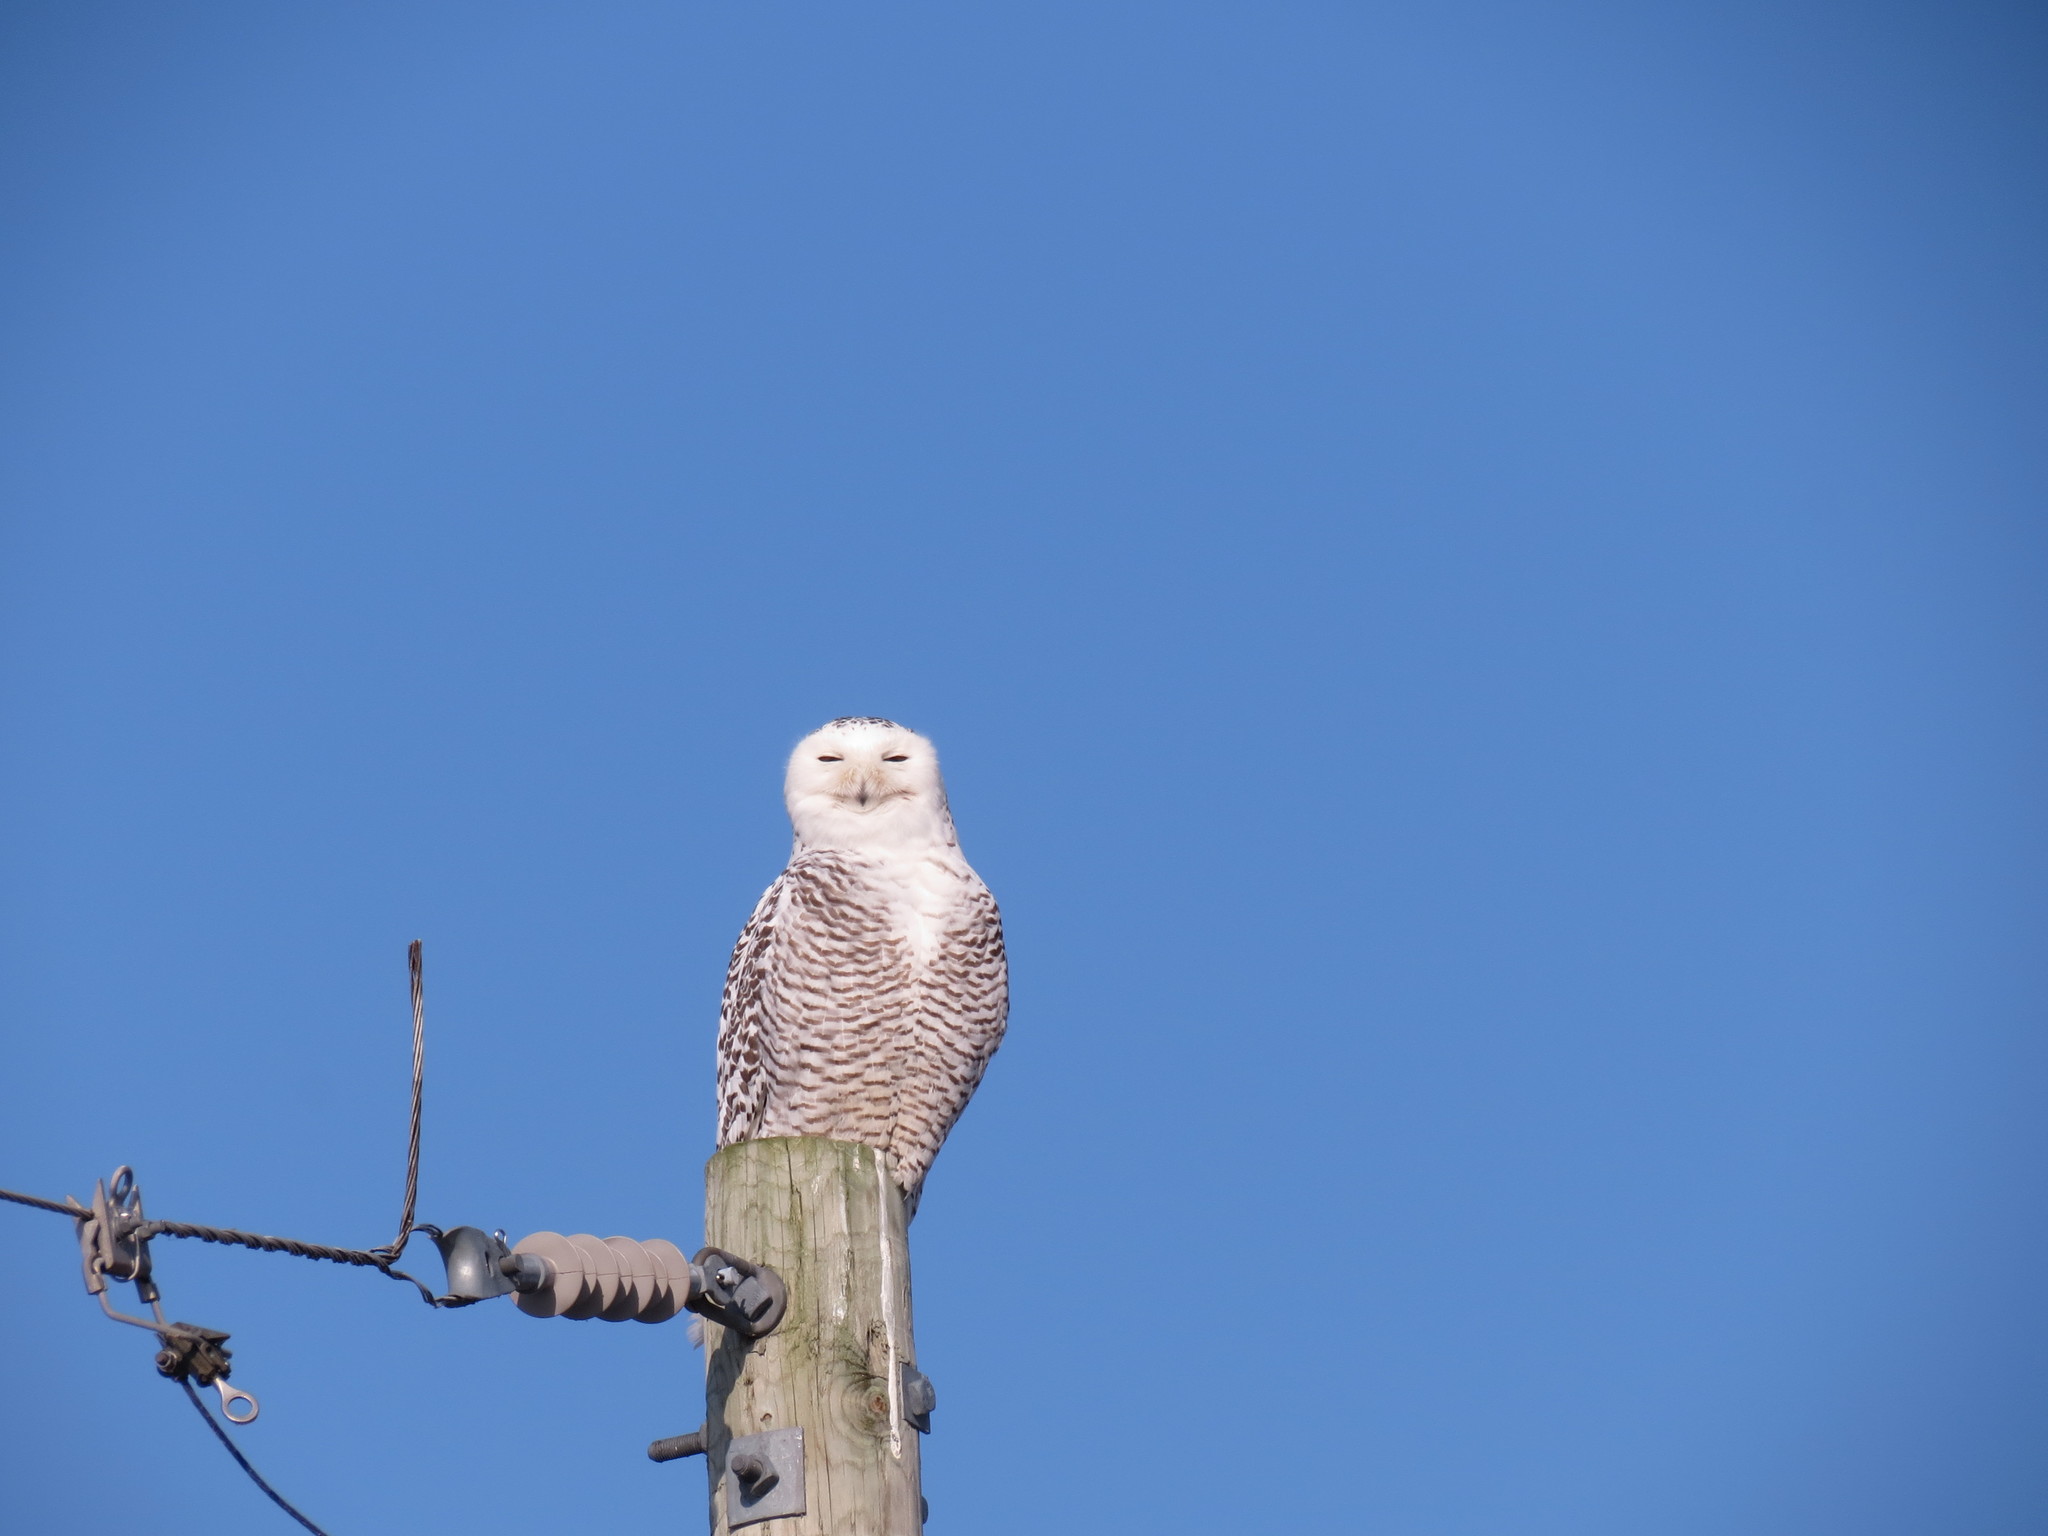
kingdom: Animalia
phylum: Chordata
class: Aves
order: Strigiformes
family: Strigidae
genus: Bubo
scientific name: Bubo scandiacus
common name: Snowy owl
